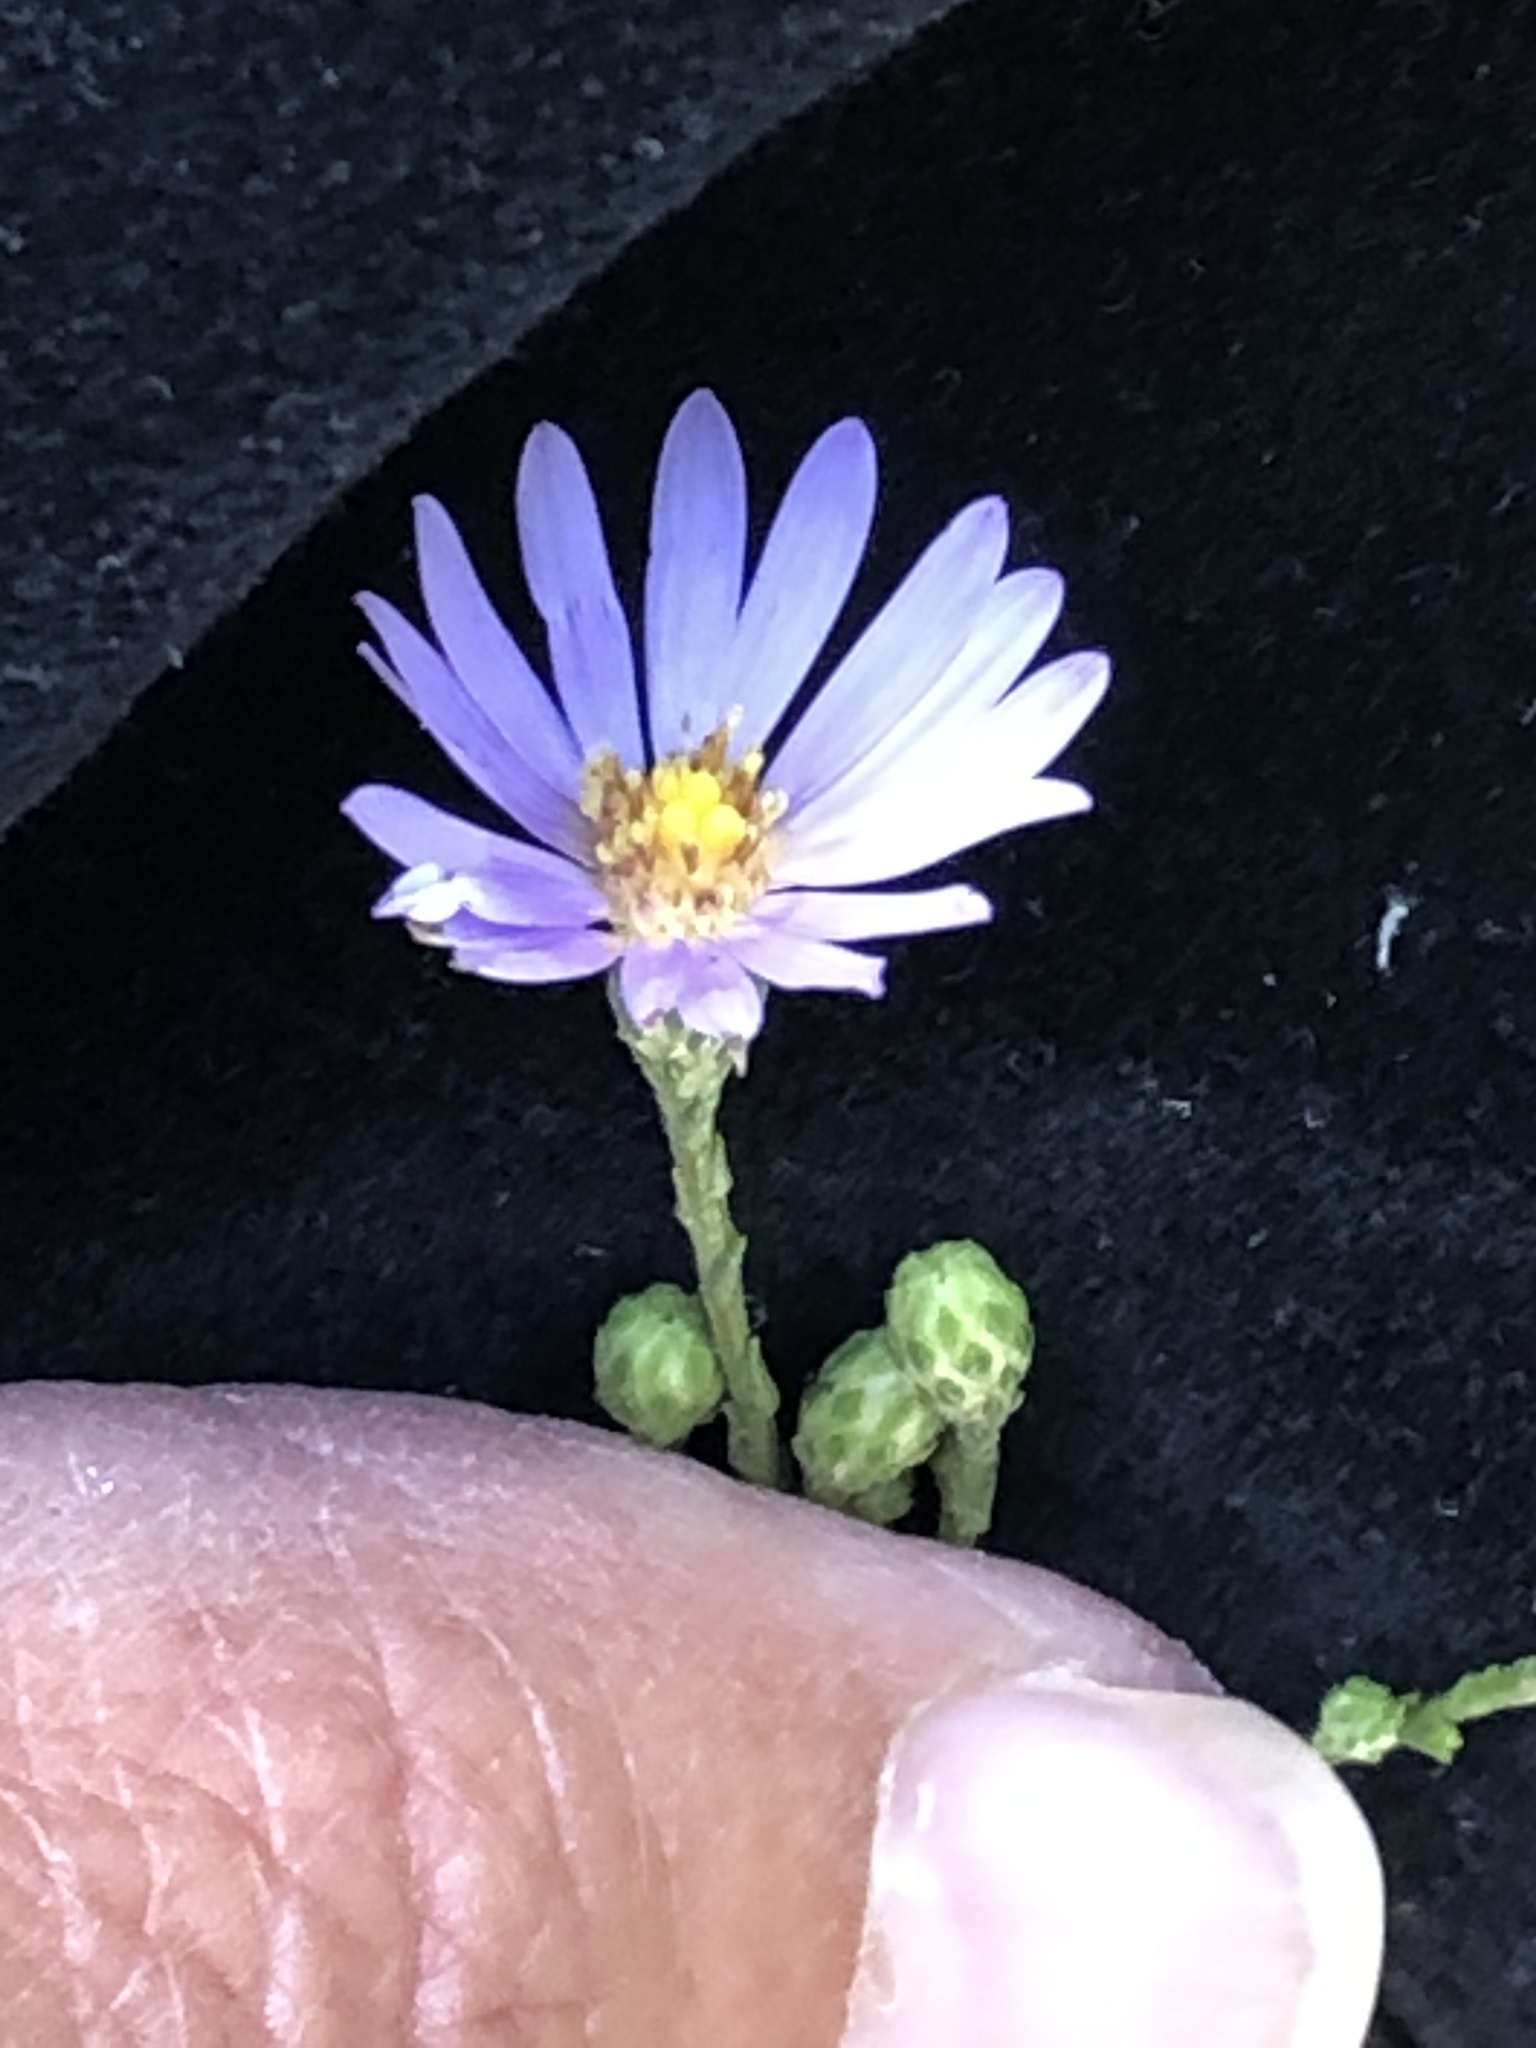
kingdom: Plantae
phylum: Tracheophyta
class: Magnoliopsida
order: Asterales
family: Asteraceae
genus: Symphyotrichum
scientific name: Symphyotrichum oolentangiense
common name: Azure aster
